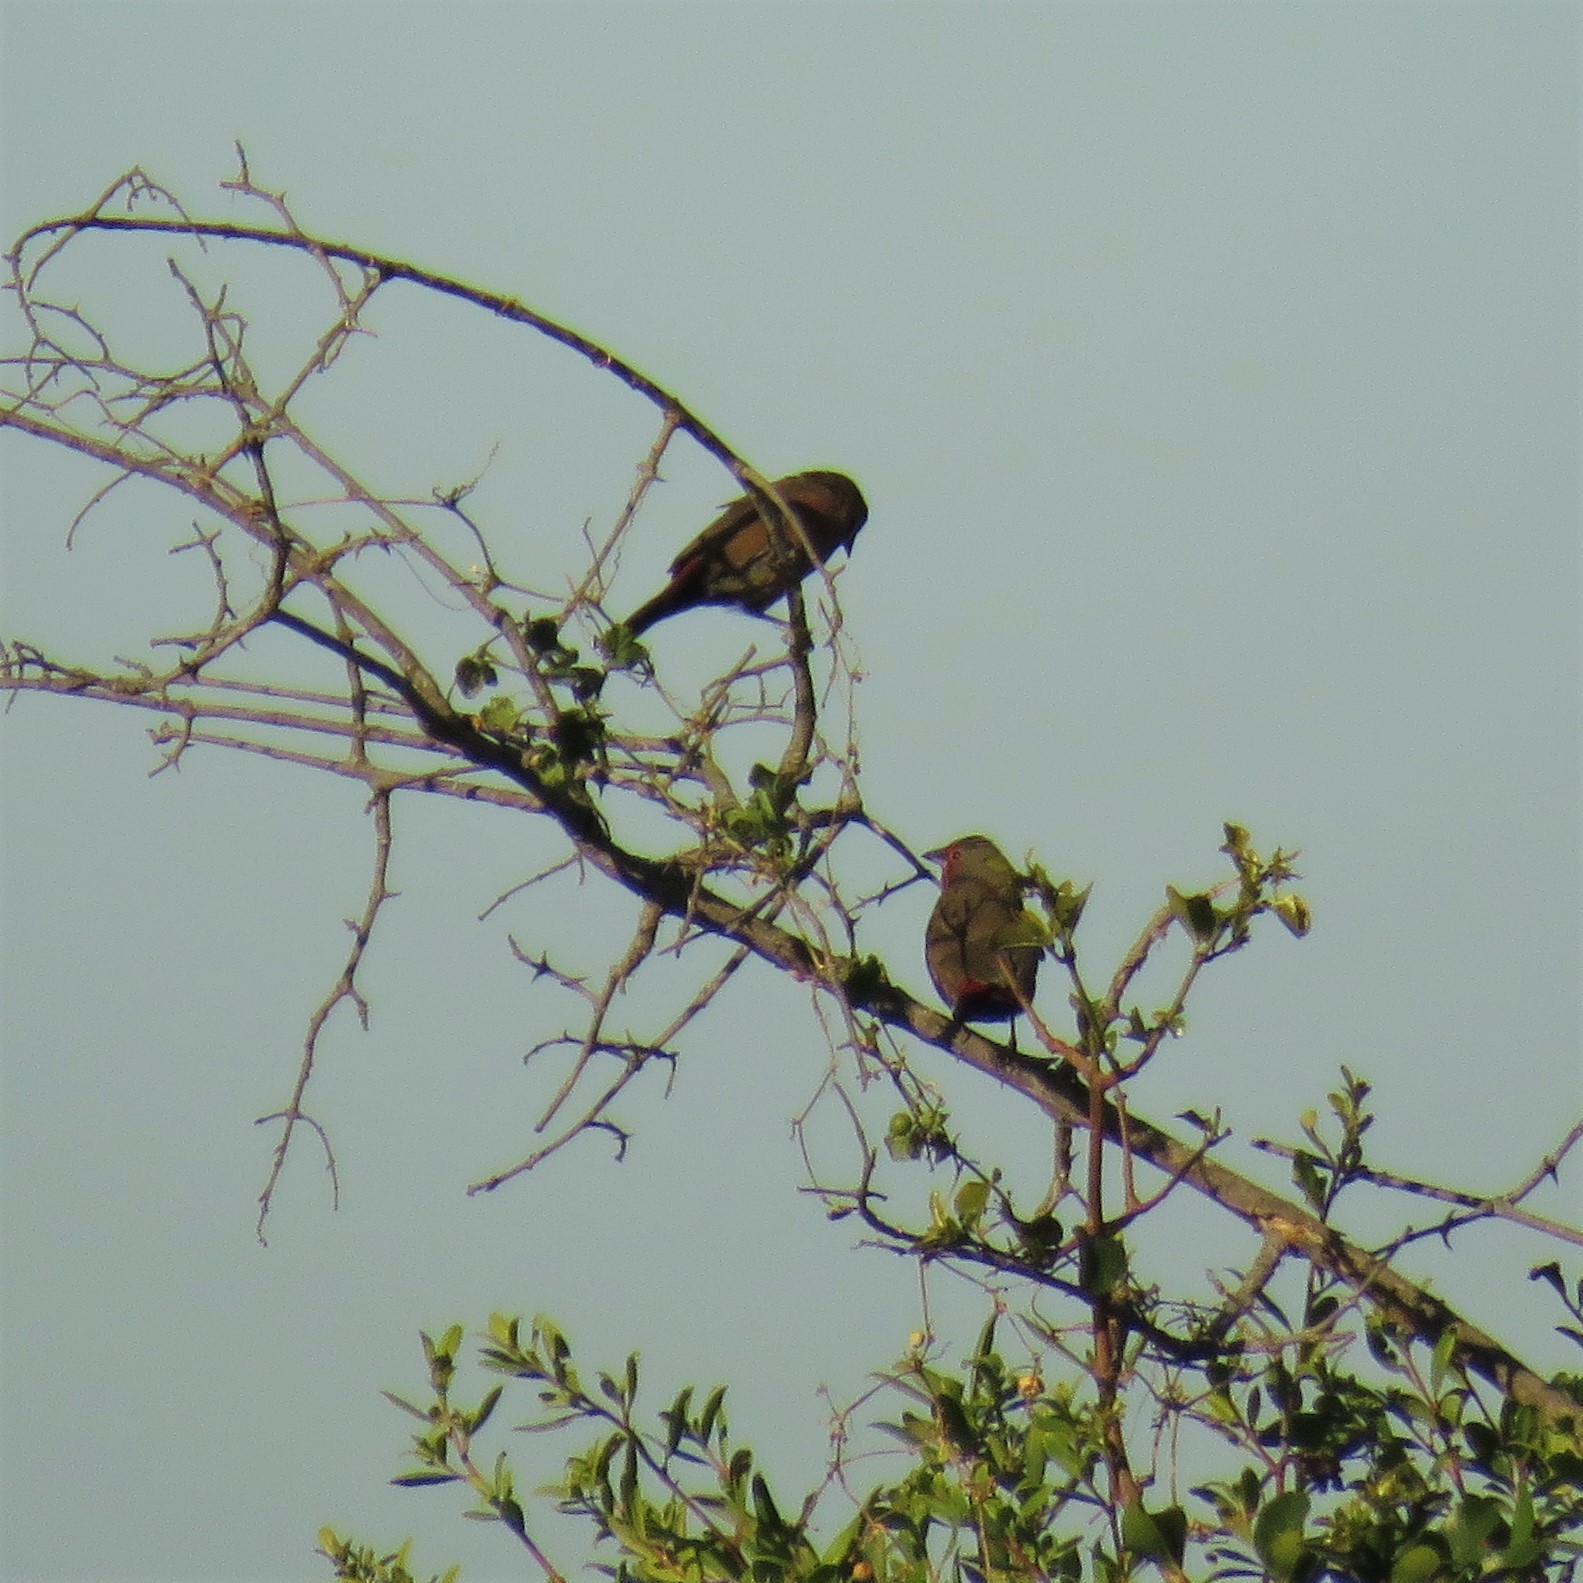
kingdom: Animalia
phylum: Chordata
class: Aves
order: Passeriformes
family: Estrildidae
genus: Lagonosticta
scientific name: Lagonosticta rubricata
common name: African firefinch
